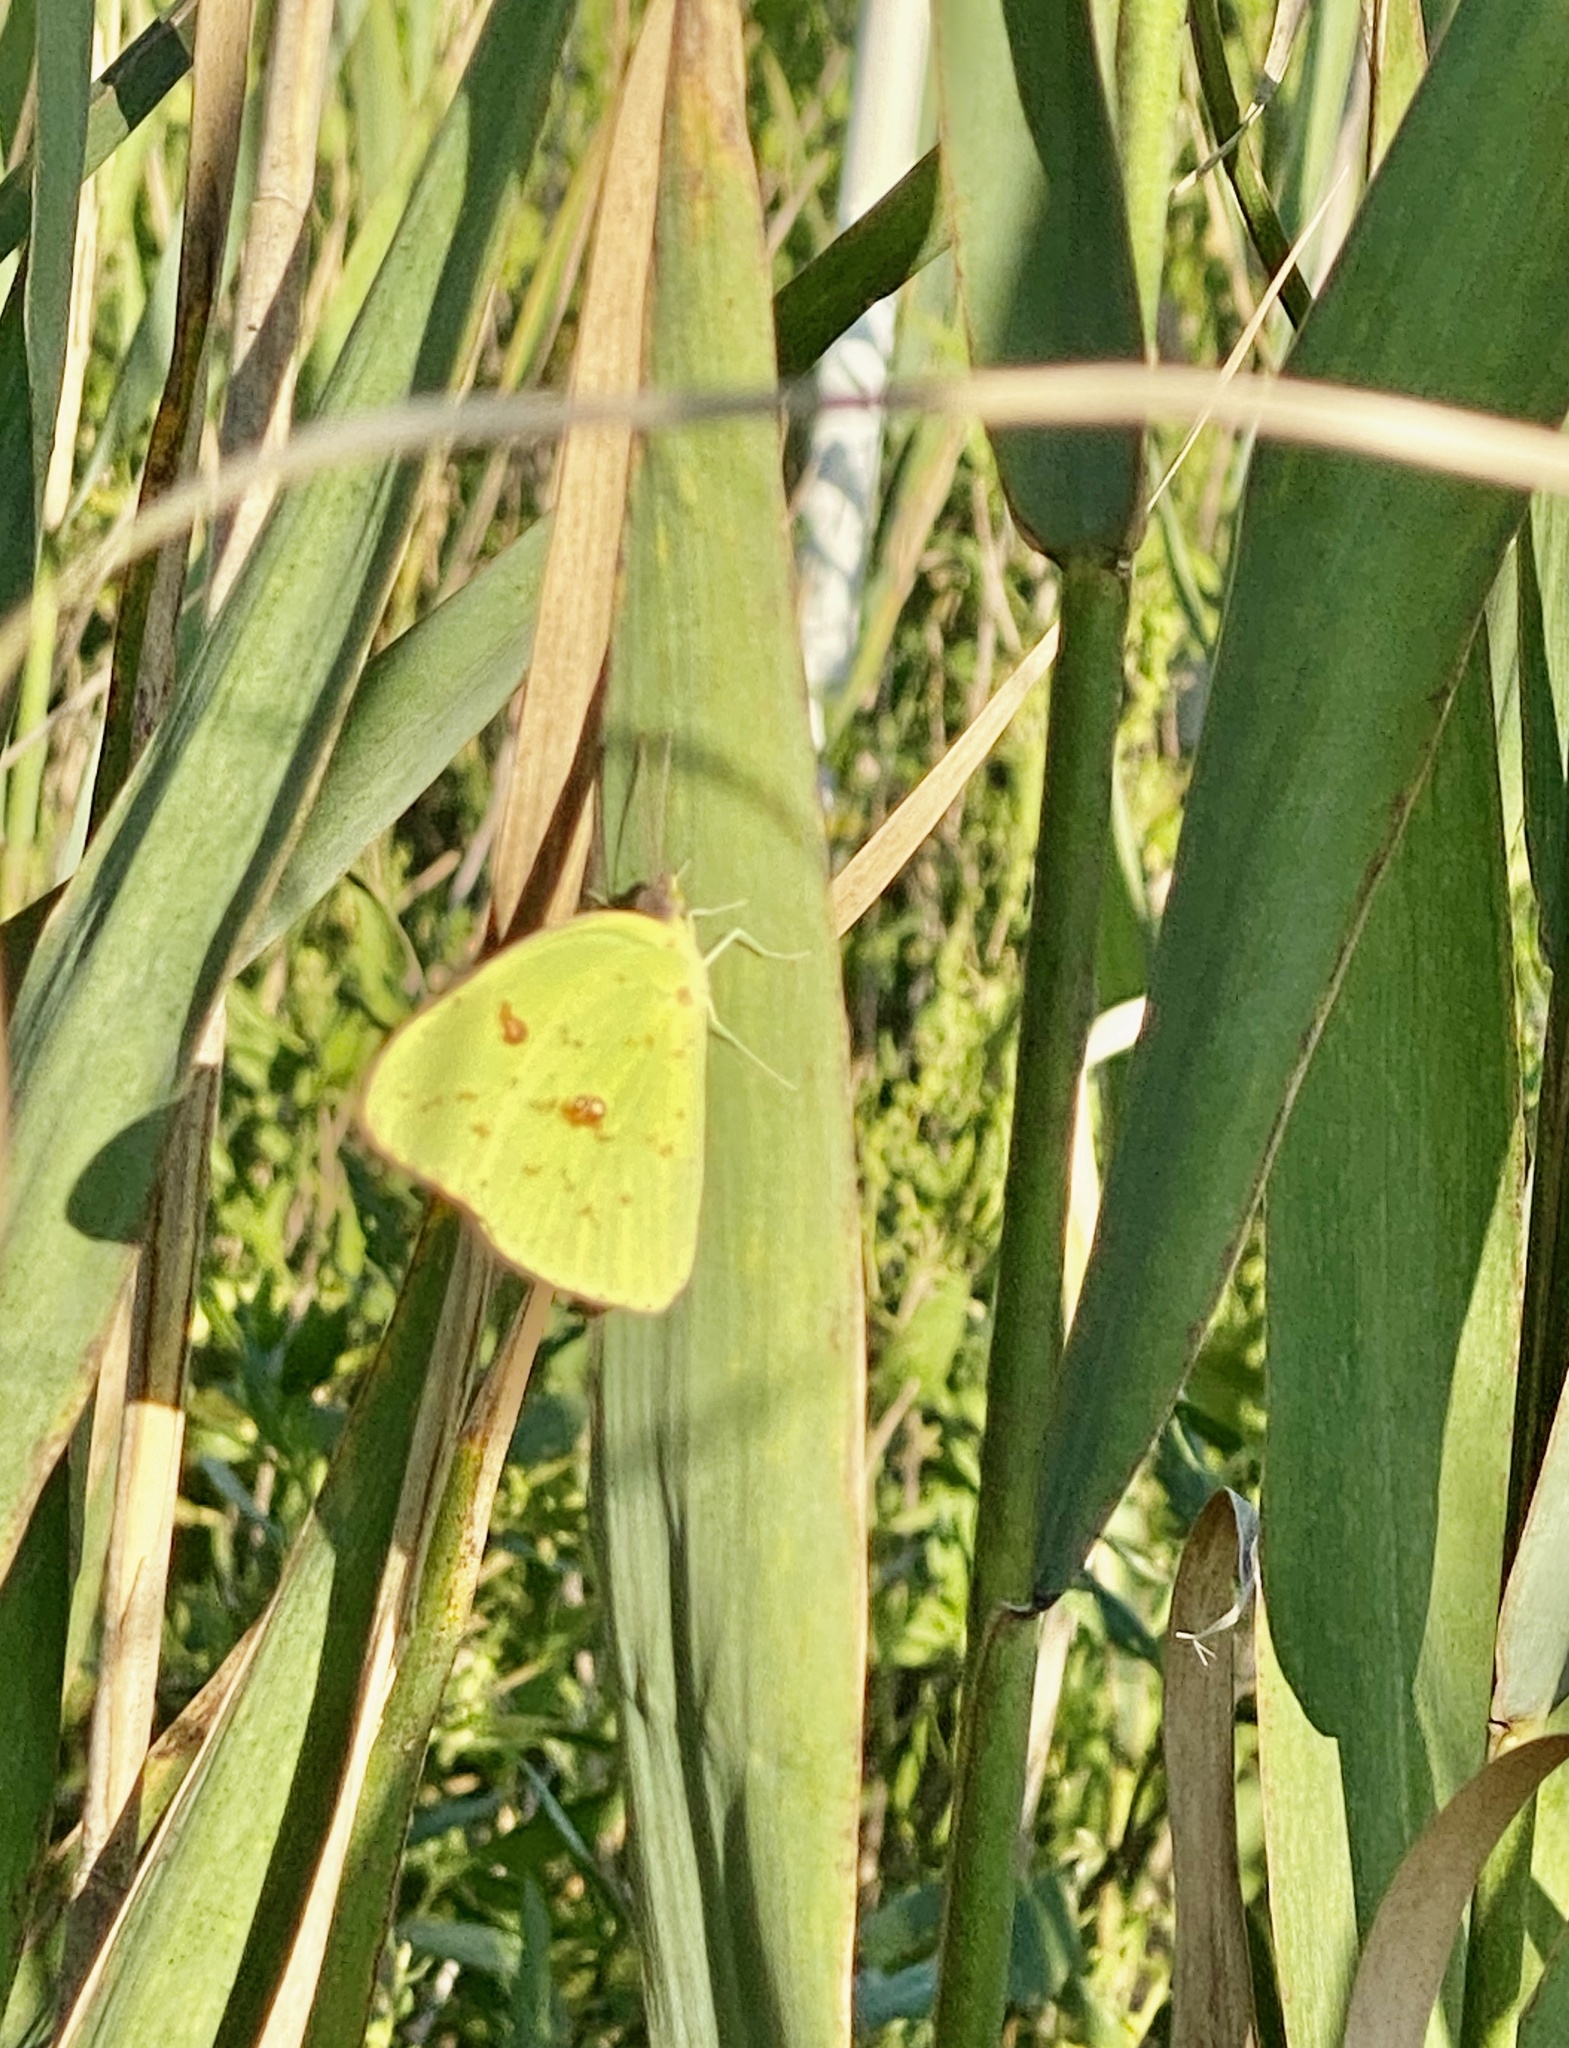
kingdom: Animalia
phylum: Arthropoda
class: Insecta
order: Lepidoptera
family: Pieridae
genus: Phoebis
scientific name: Phoebis sennae
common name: Cloudless sulphur
